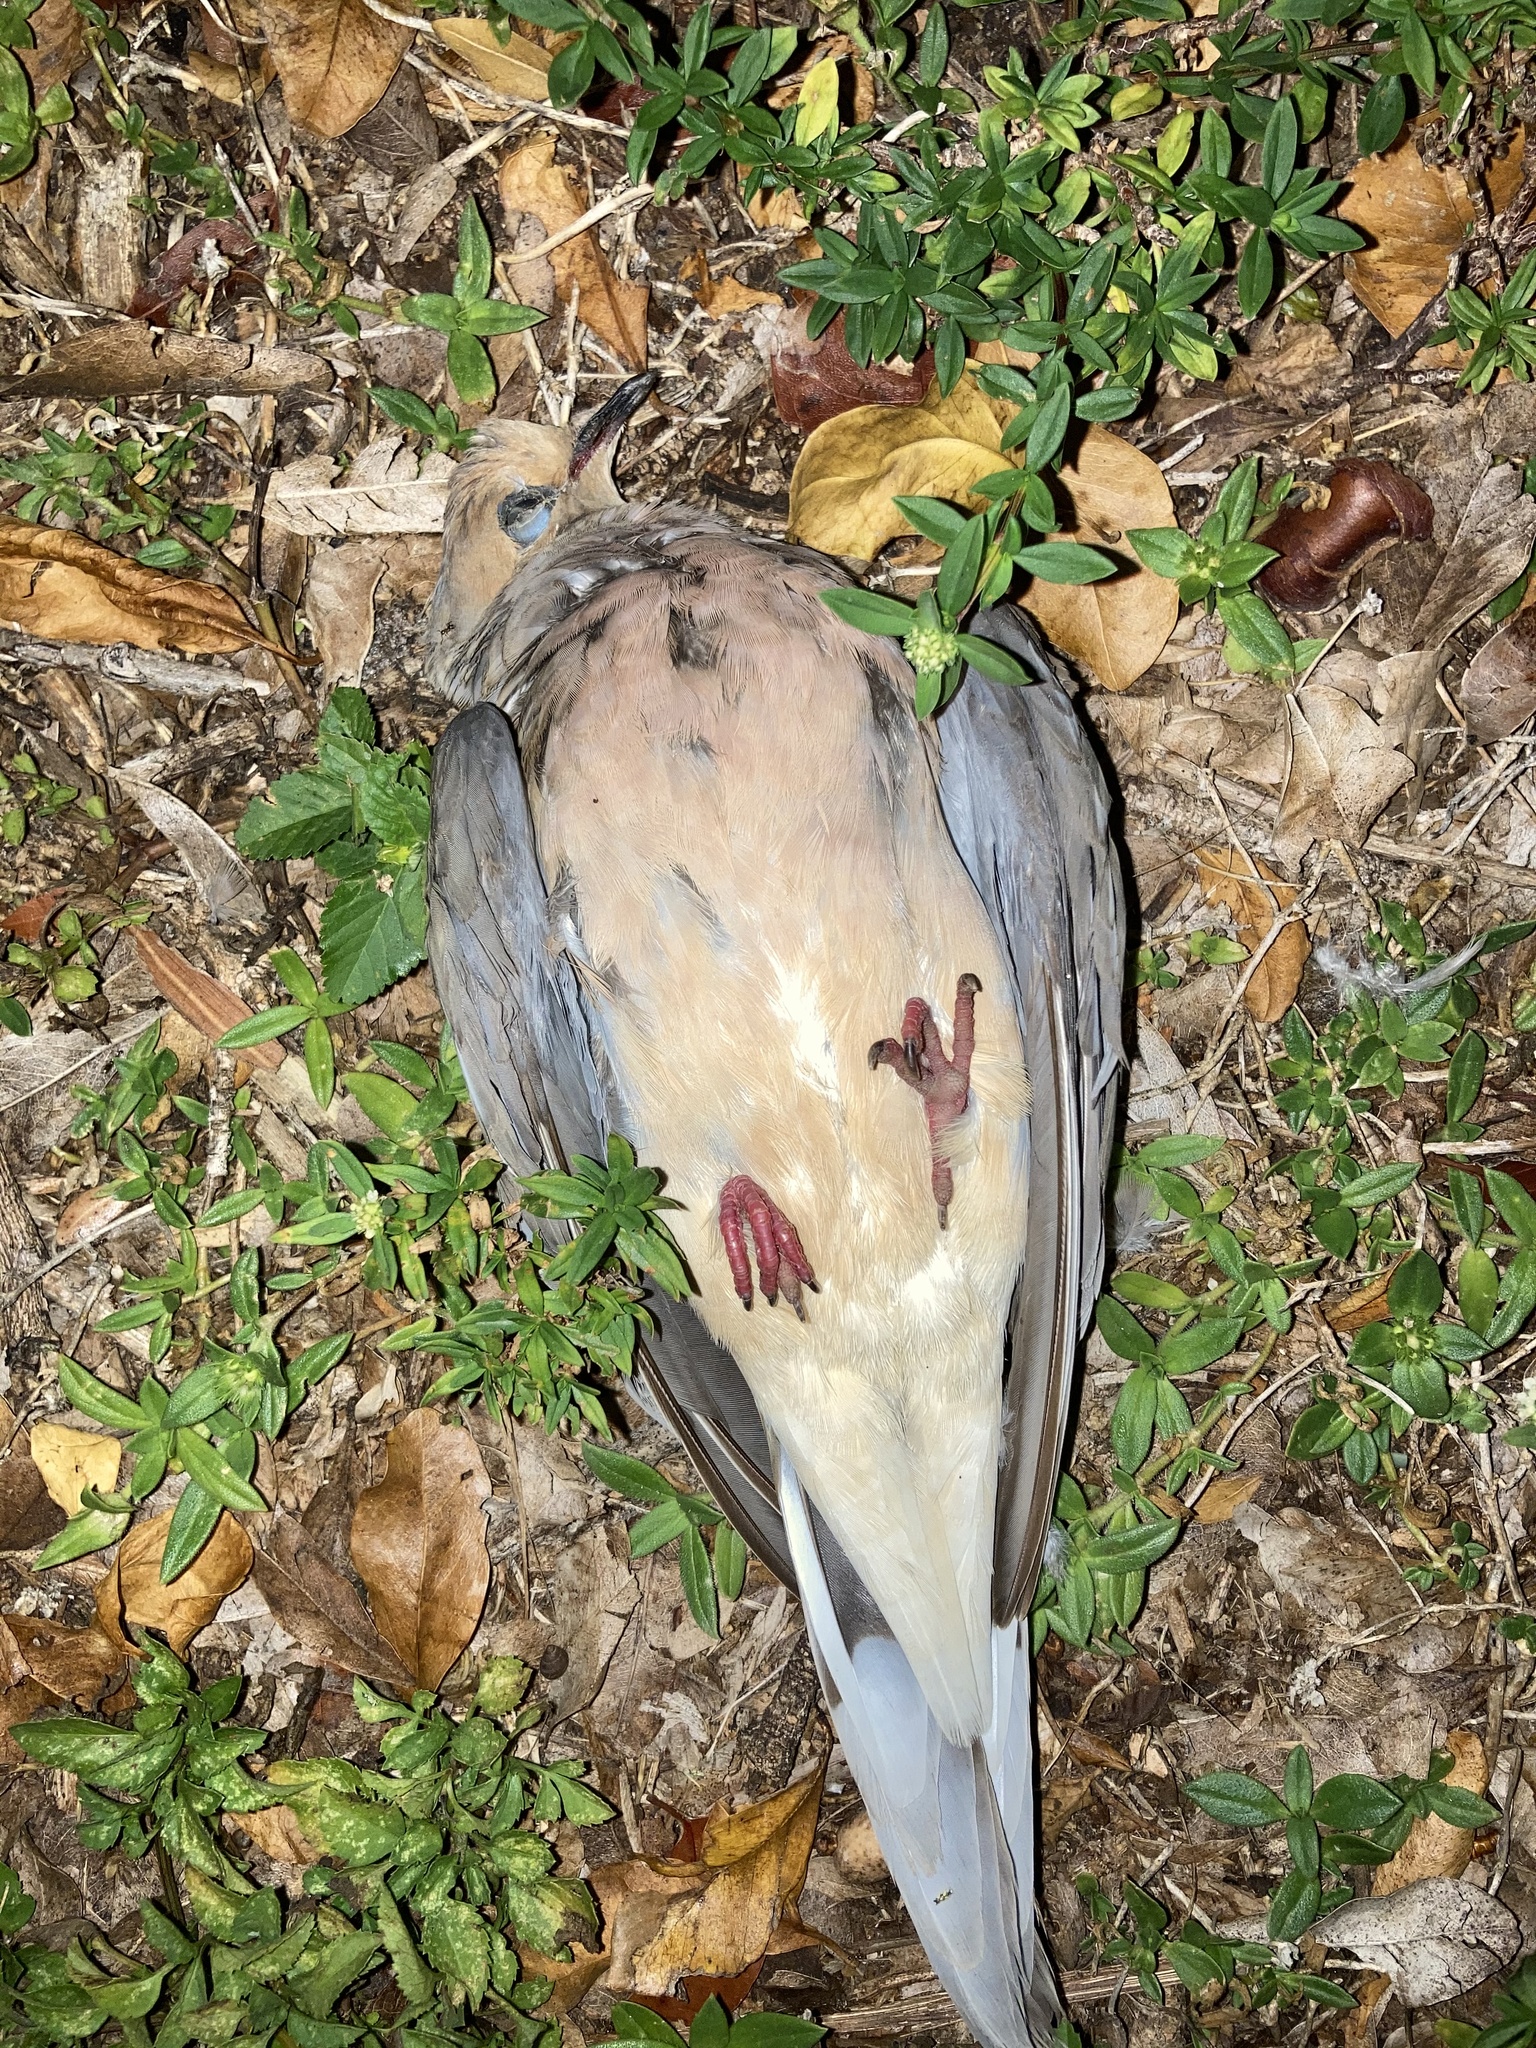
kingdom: Animalia
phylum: Chordata
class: Aves
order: Columbiformes
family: Columbidae
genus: Zenaida
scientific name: Zenaida macroura
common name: Mourning dove
